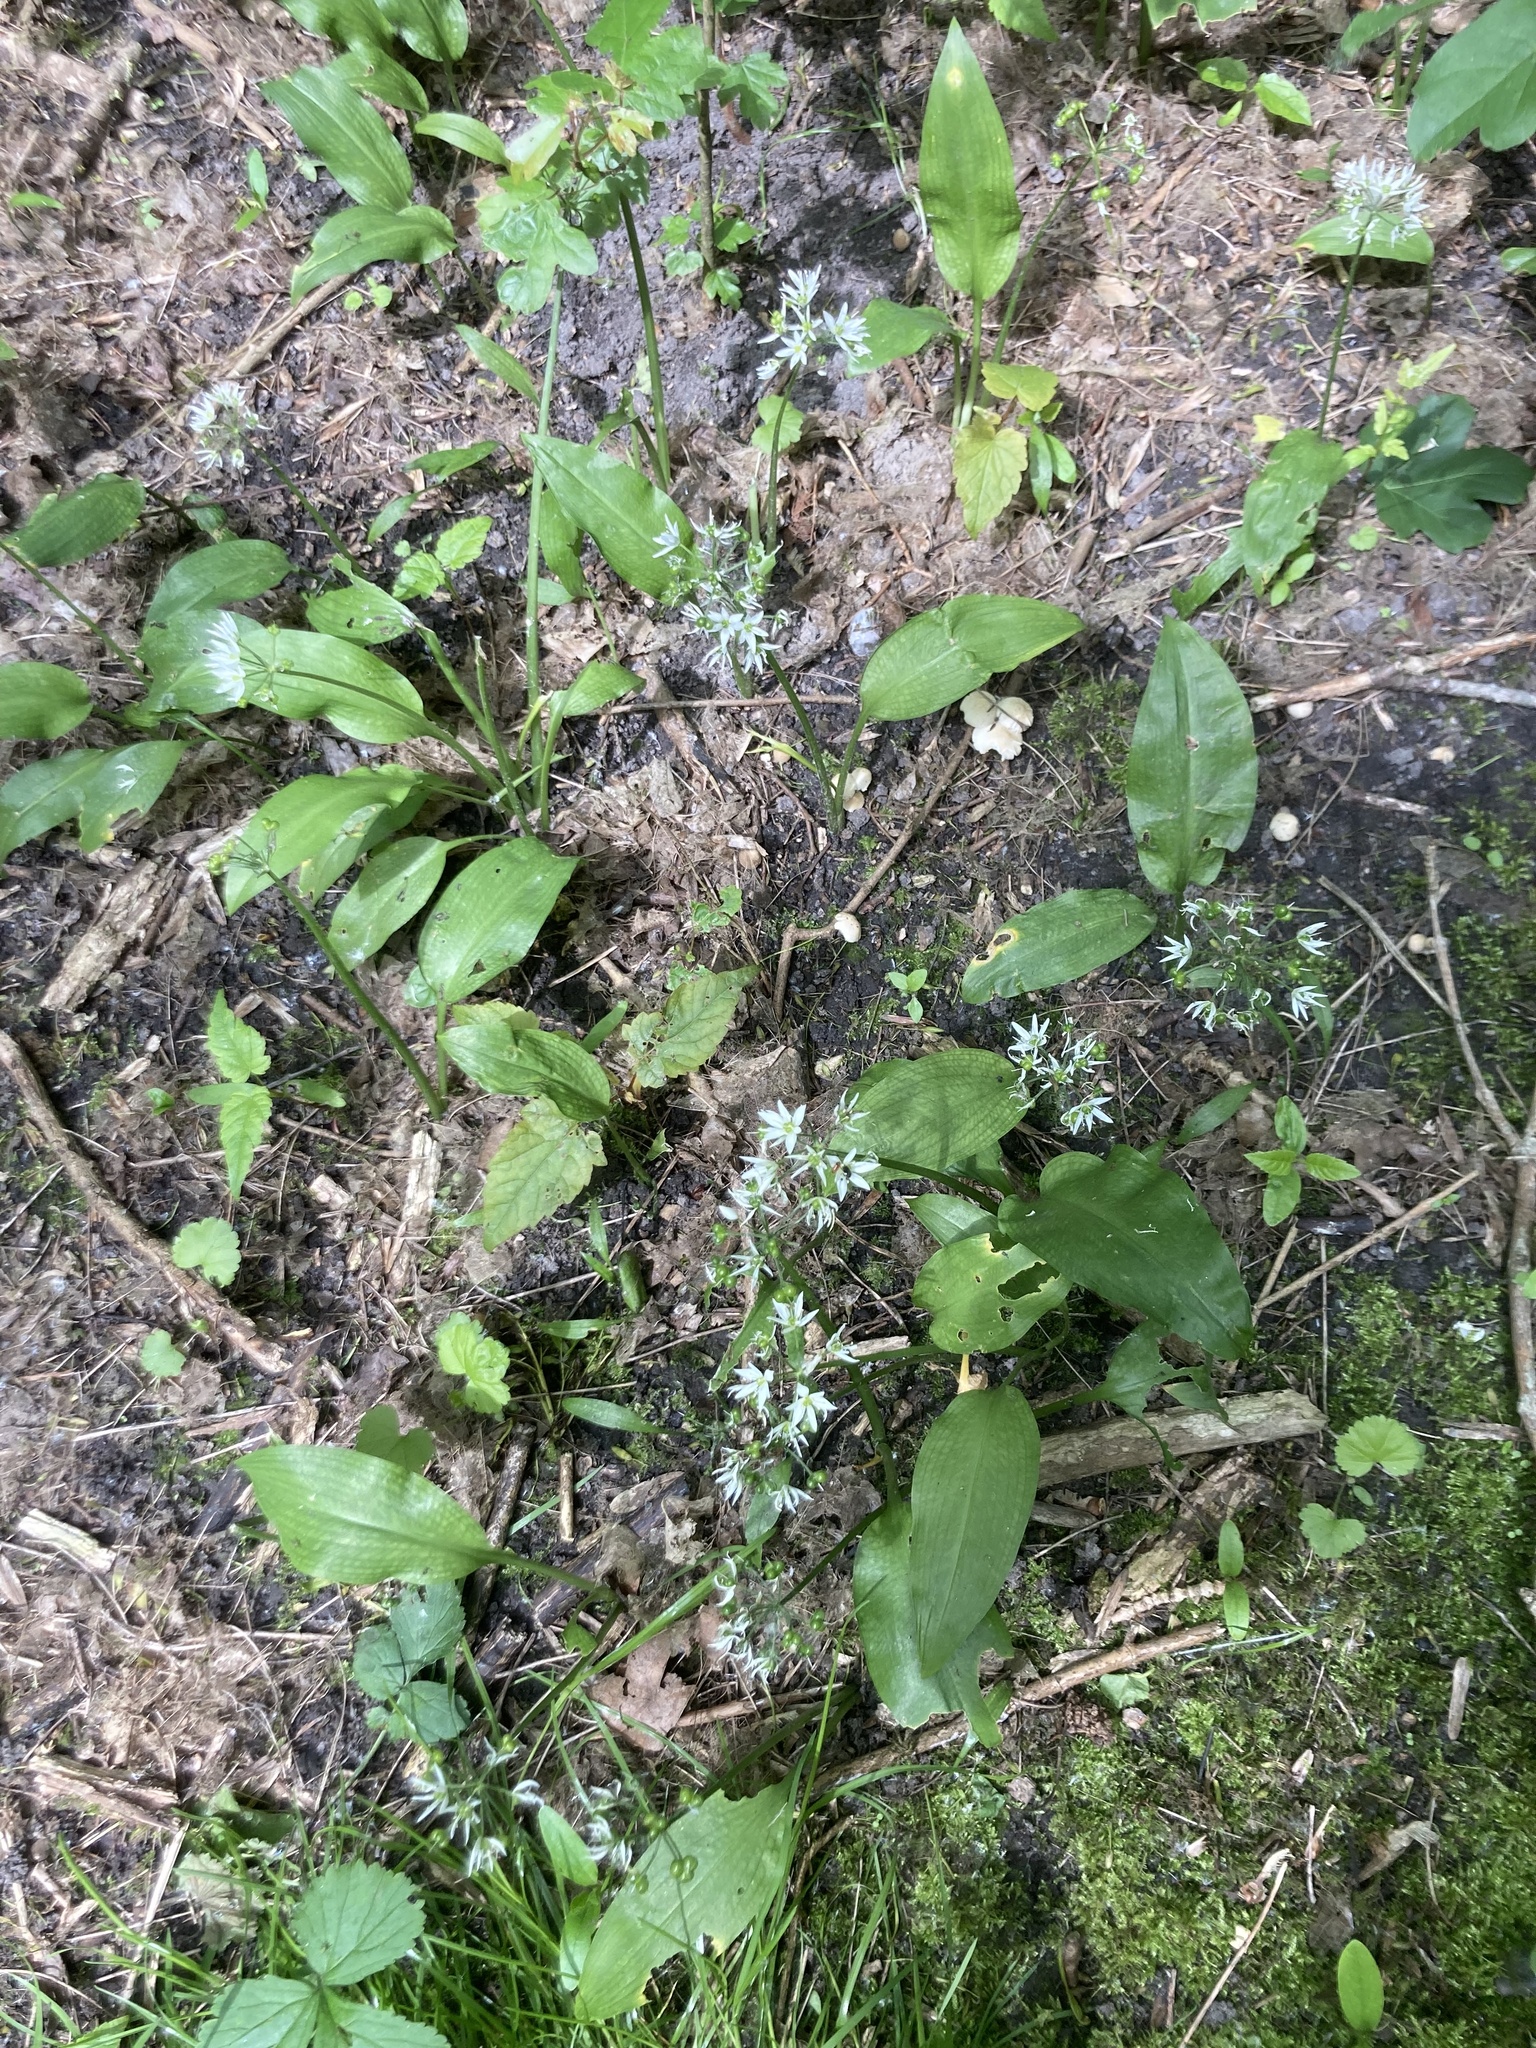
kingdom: Plantae
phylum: Tracheophyta
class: Liliopsida
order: Asparagales
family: Amaryllidaceae
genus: Allium
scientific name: Allium ursinum
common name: Ramsons
